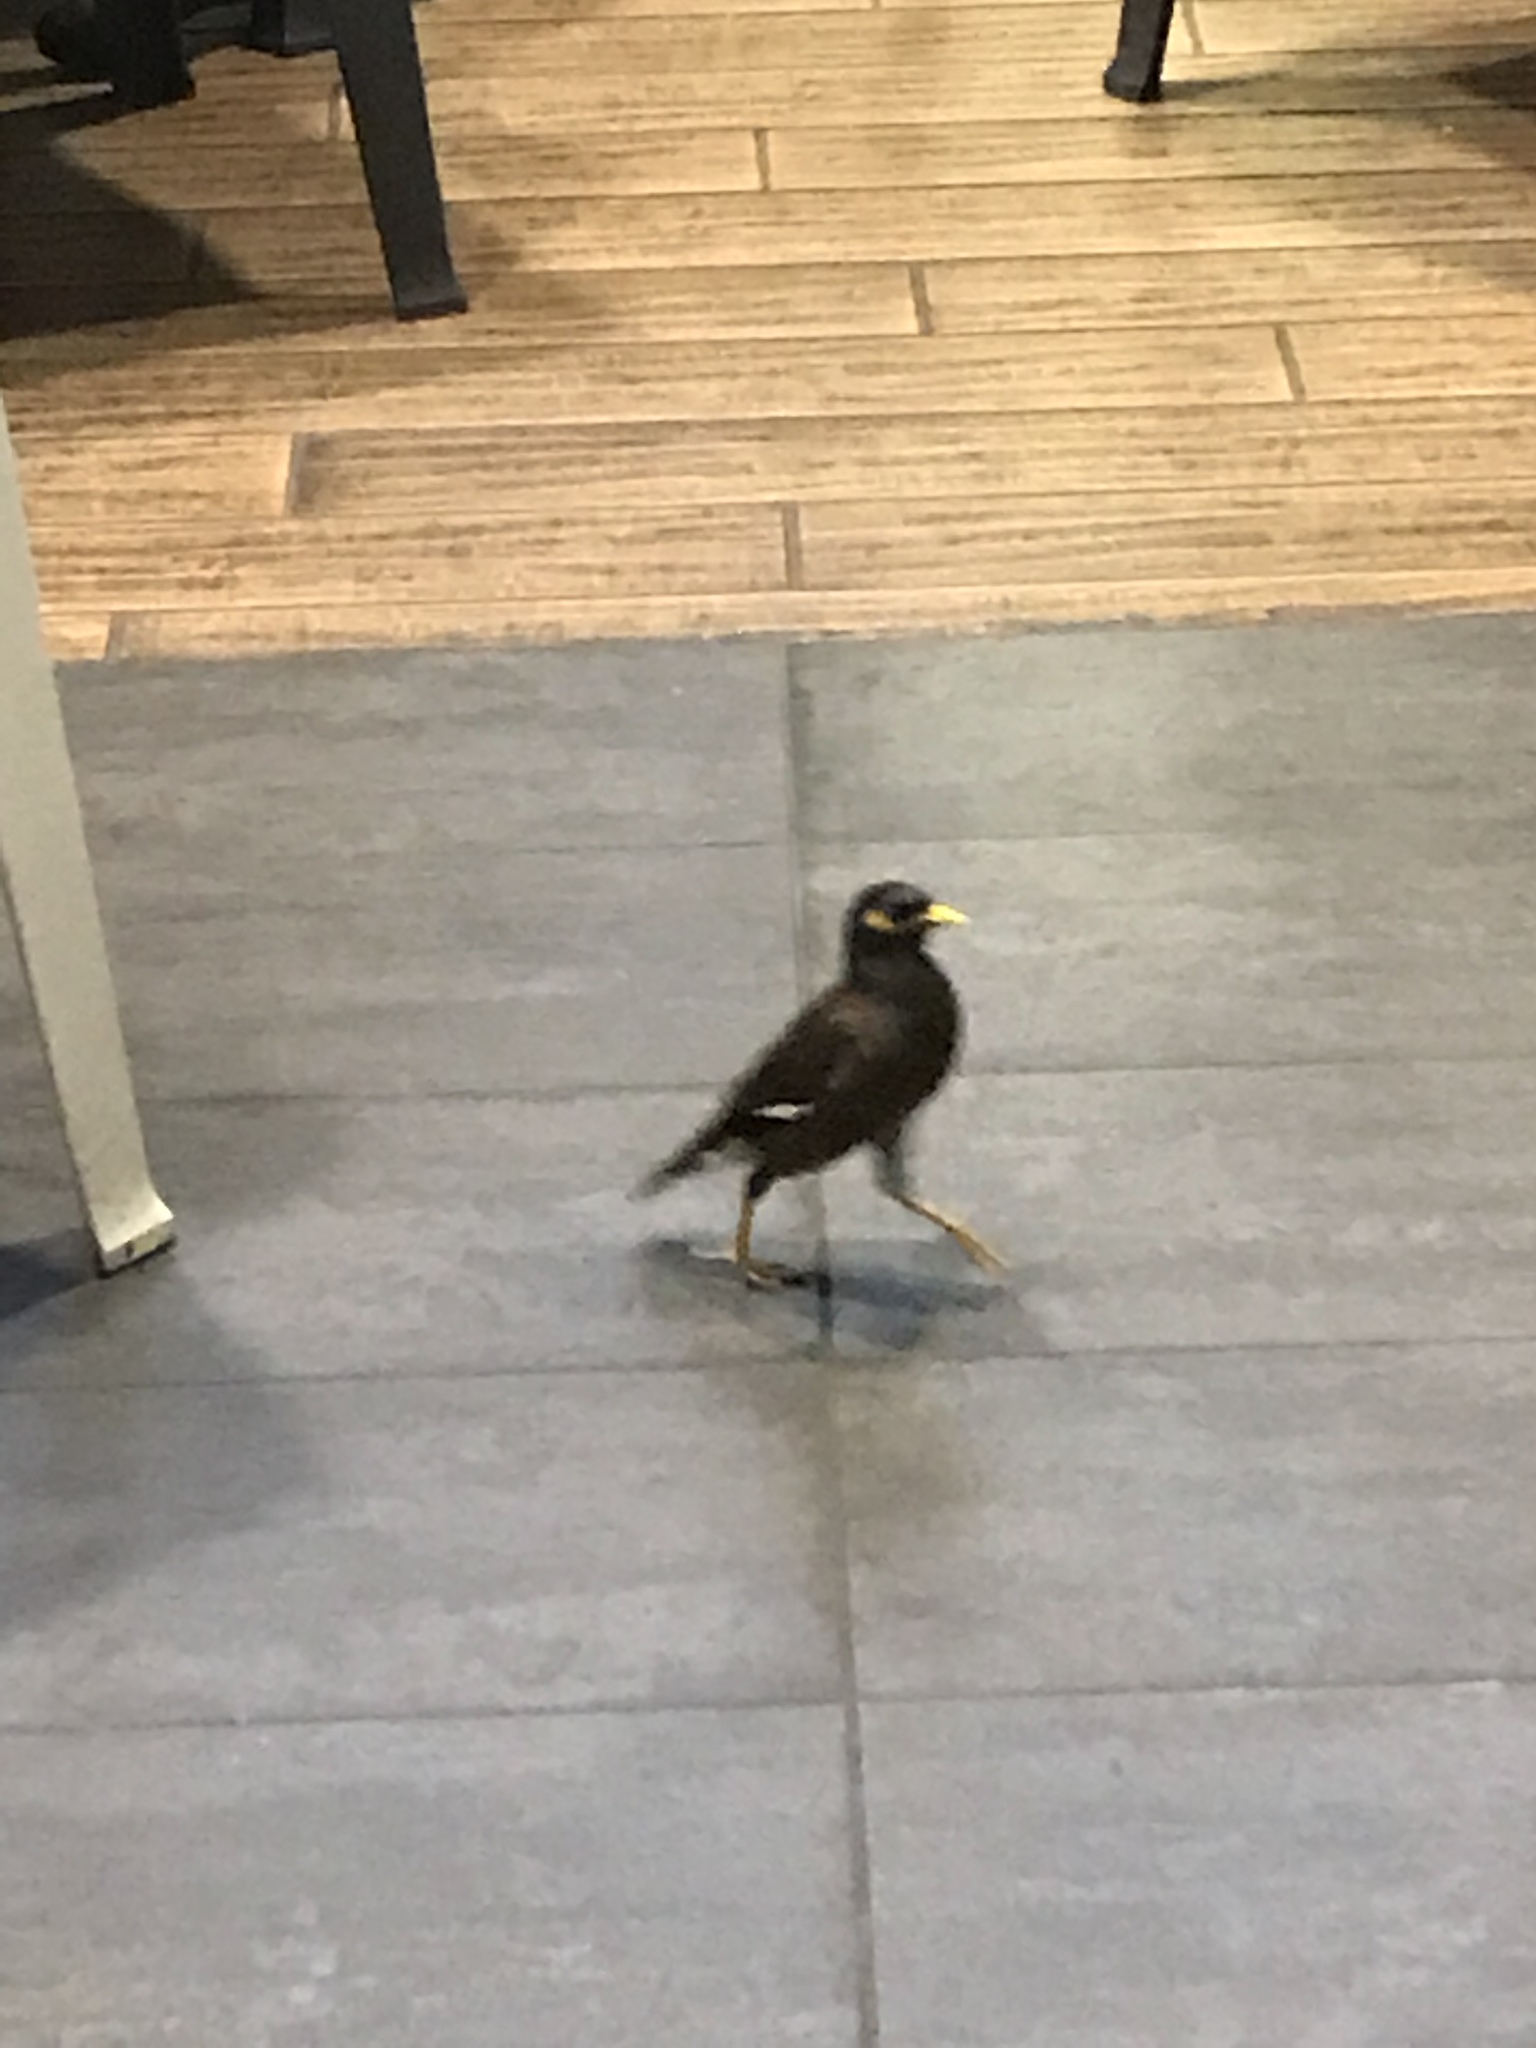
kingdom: Animalia
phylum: Chordata
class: Aves
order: Passeriformes
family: Sturnidae
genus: Acridotheres
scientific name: Acridotheres tristis
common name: Common myna
